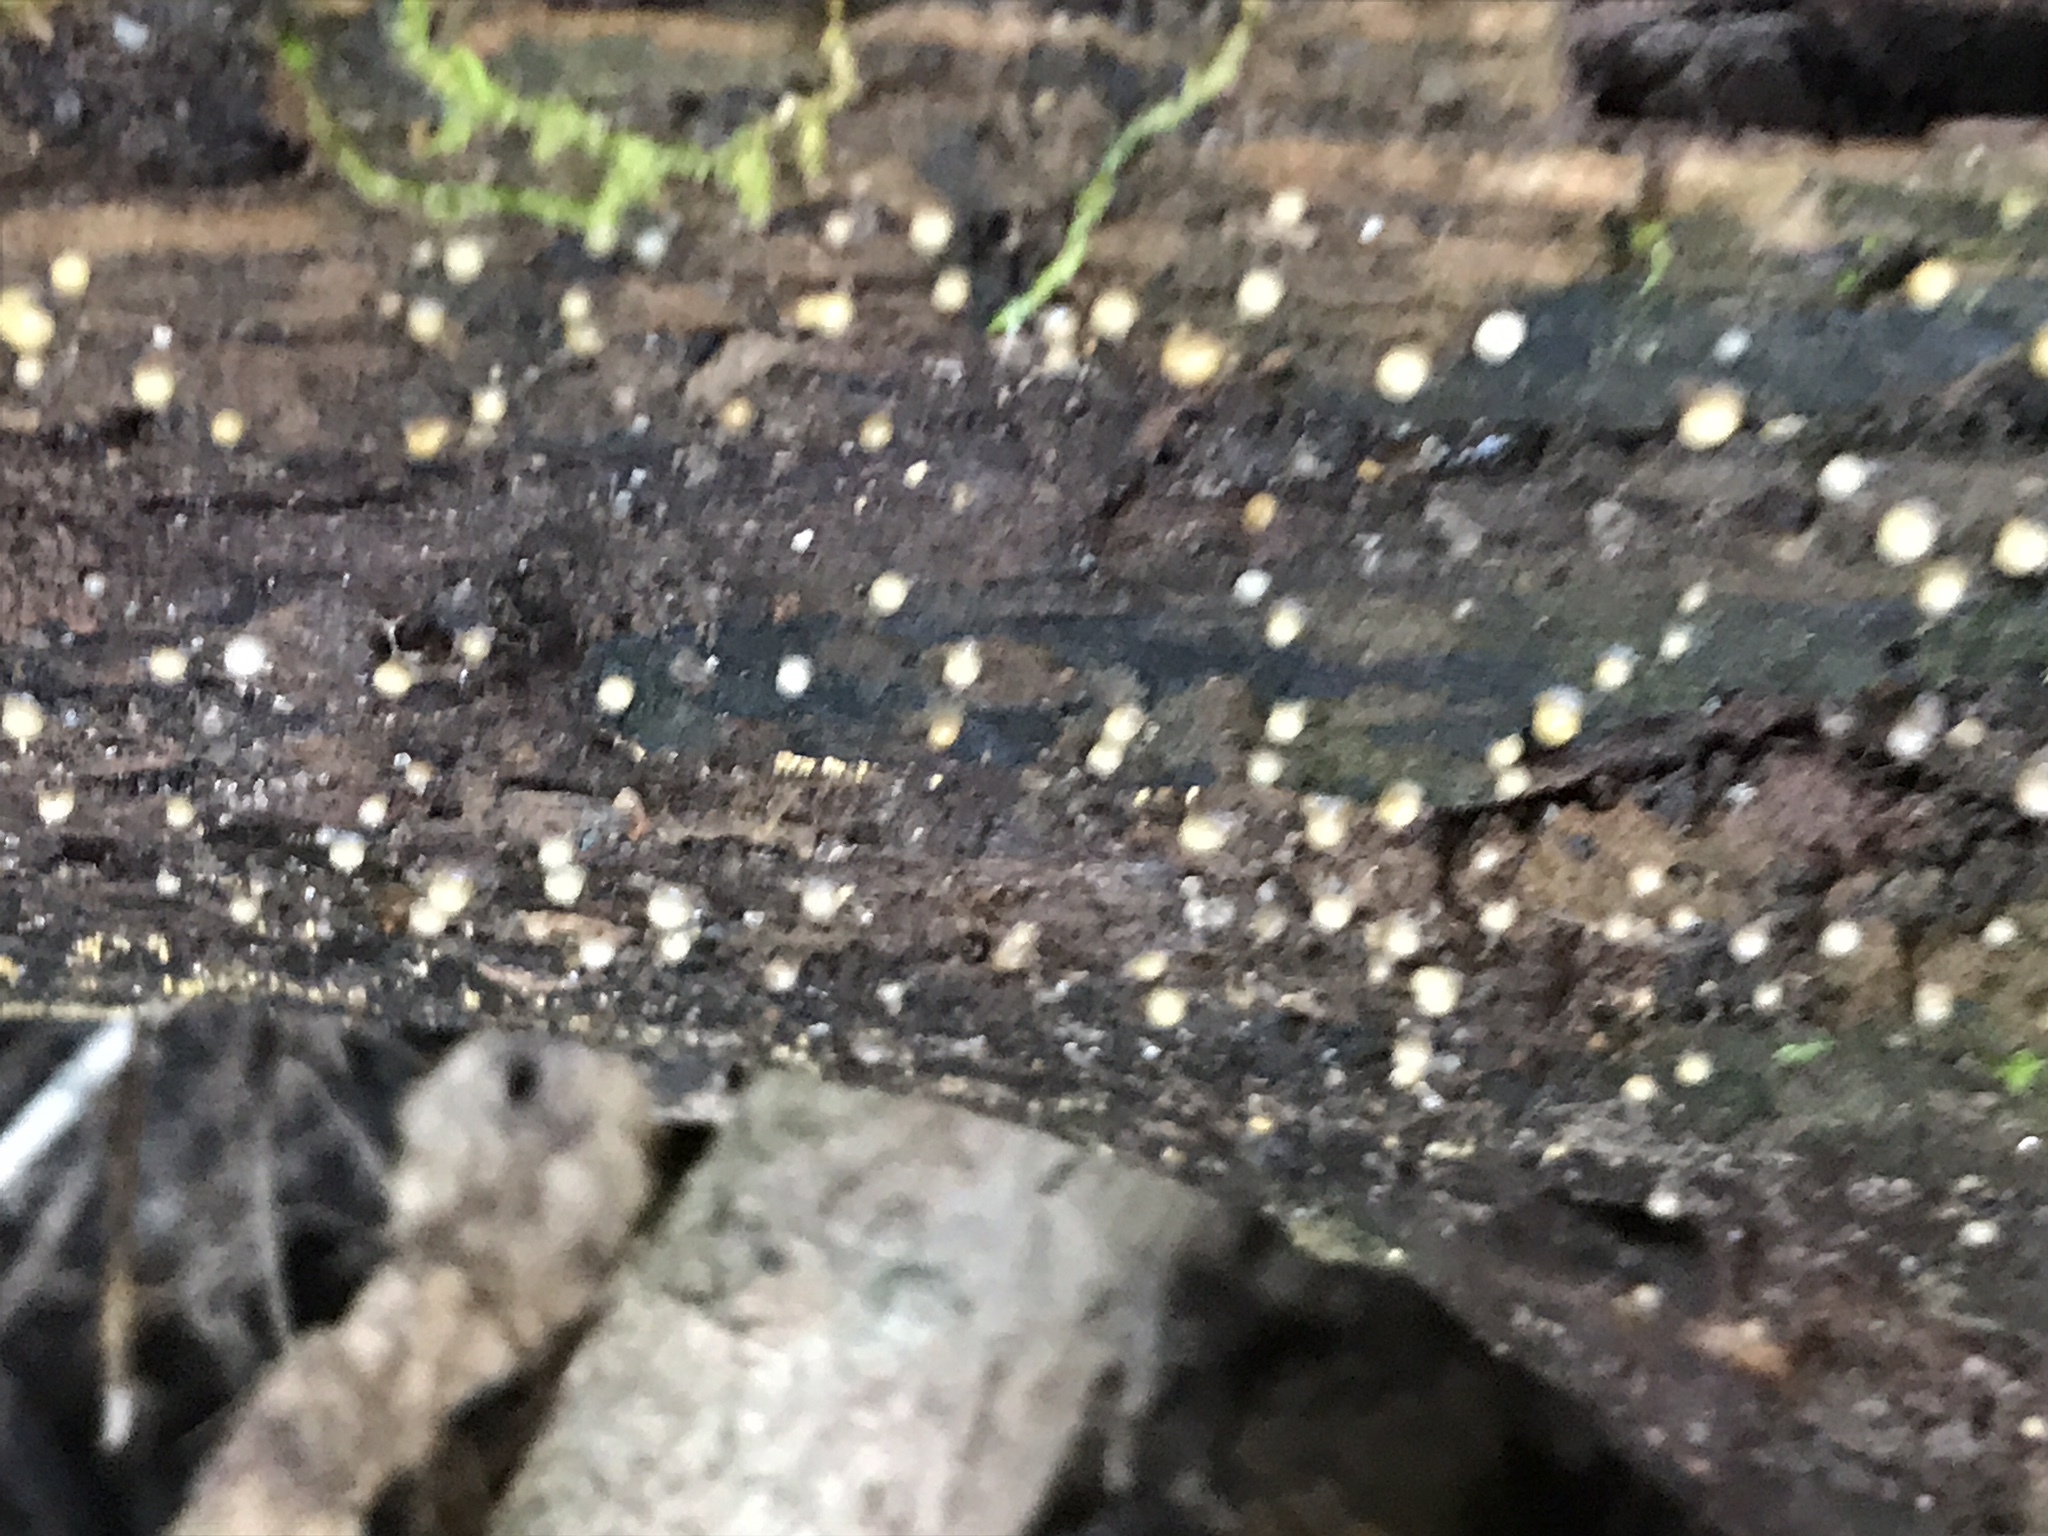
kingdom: Fungi
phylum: Basidiomycota
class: Atractiellomycetes
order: Atractiellales
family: Phleogenaceae
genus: Helicogloea
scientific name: Helicogloea compressa
